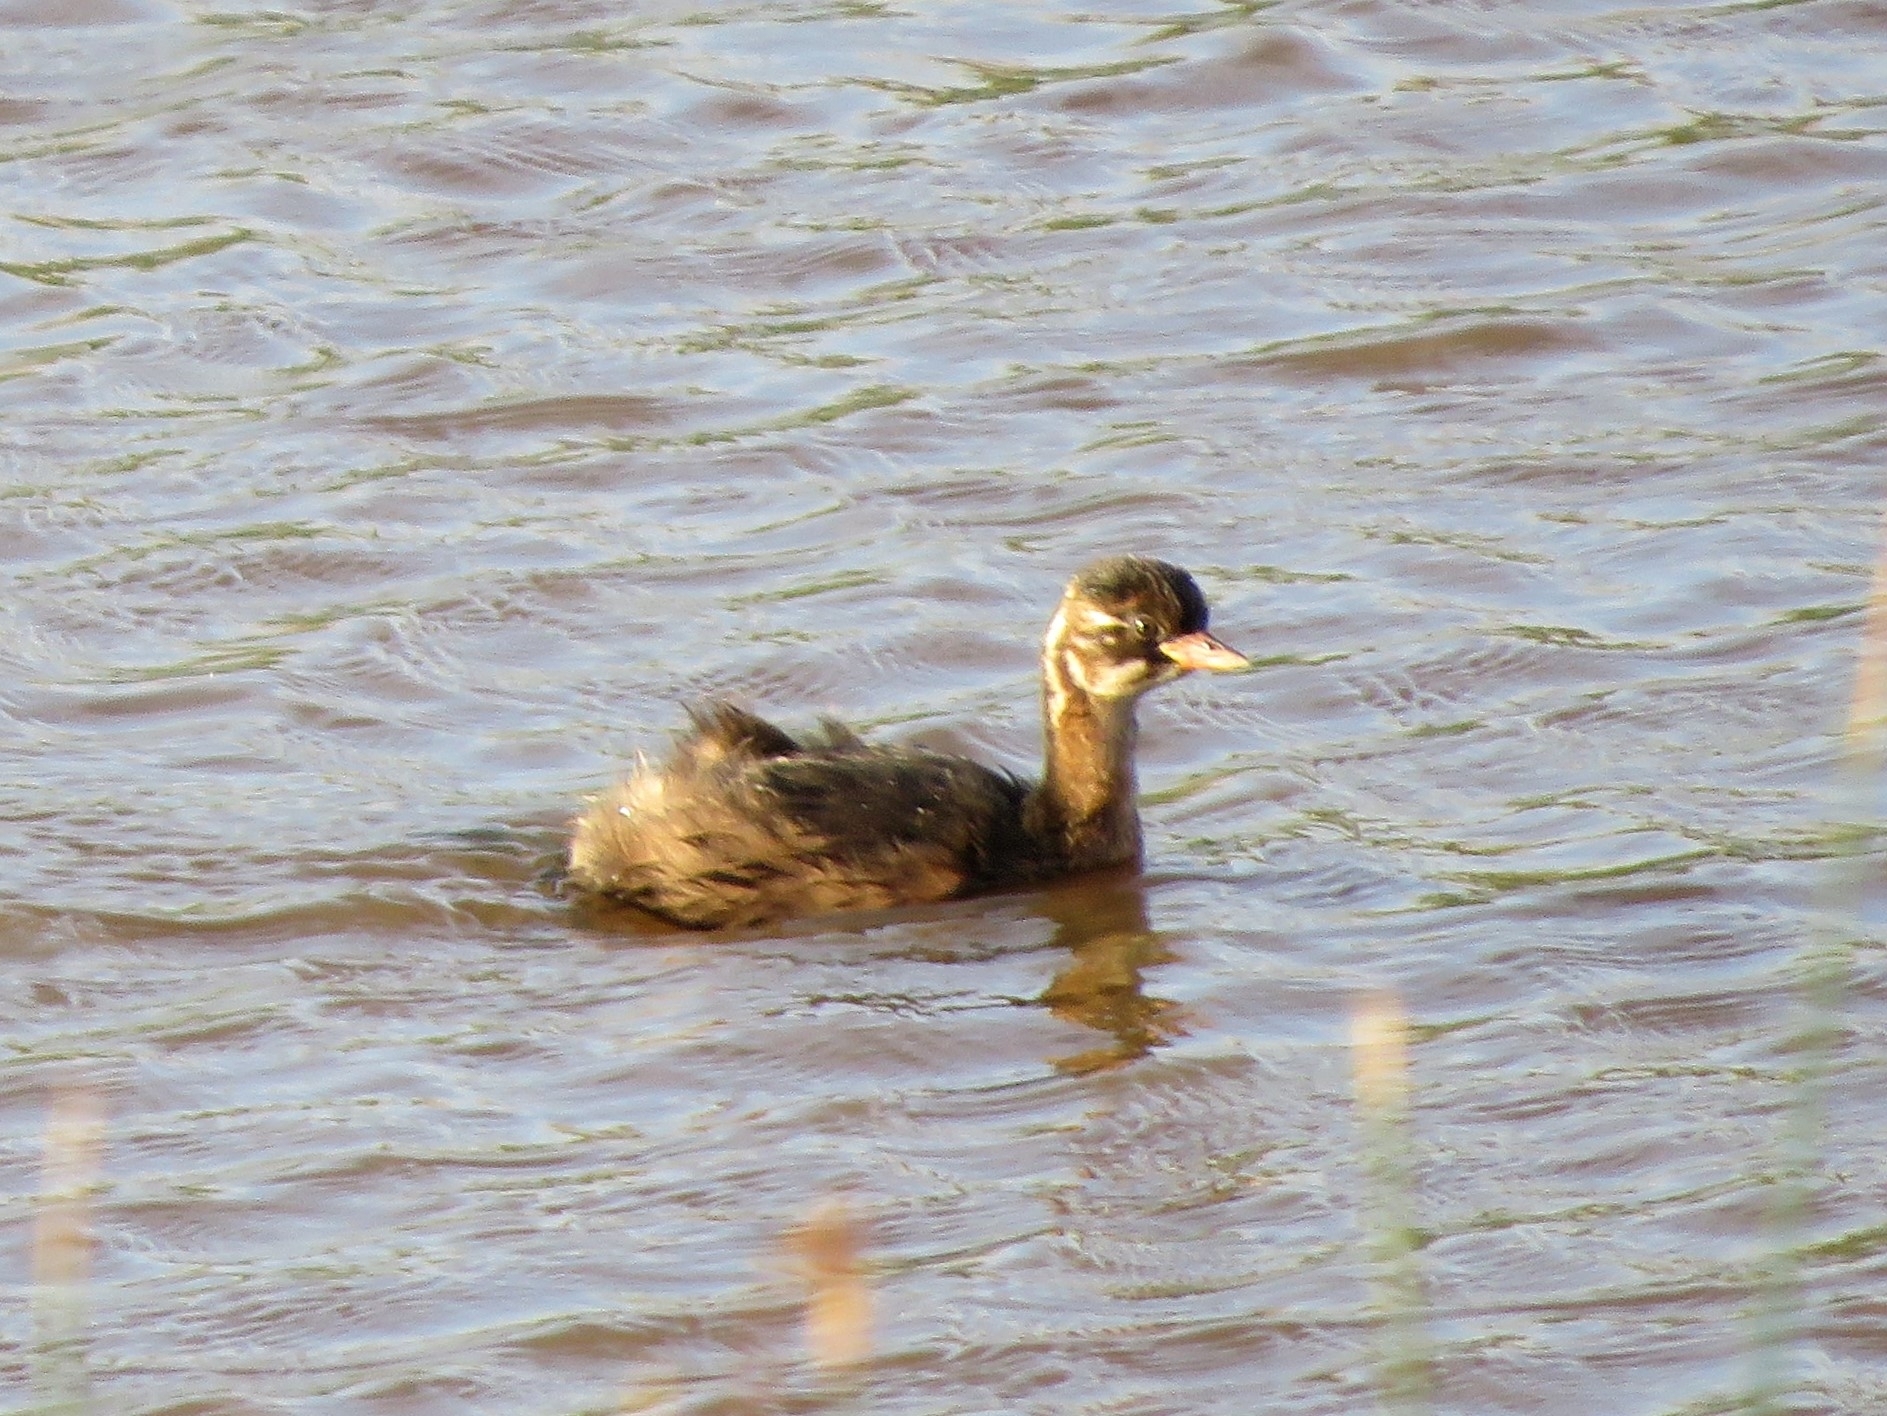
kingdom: Animalia
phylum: Chordata
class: Aves
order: Podicipediformes
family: Podicipedidae
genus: Tachybaptus
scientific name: Tachybaptus ruficollis
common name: Little grebe
